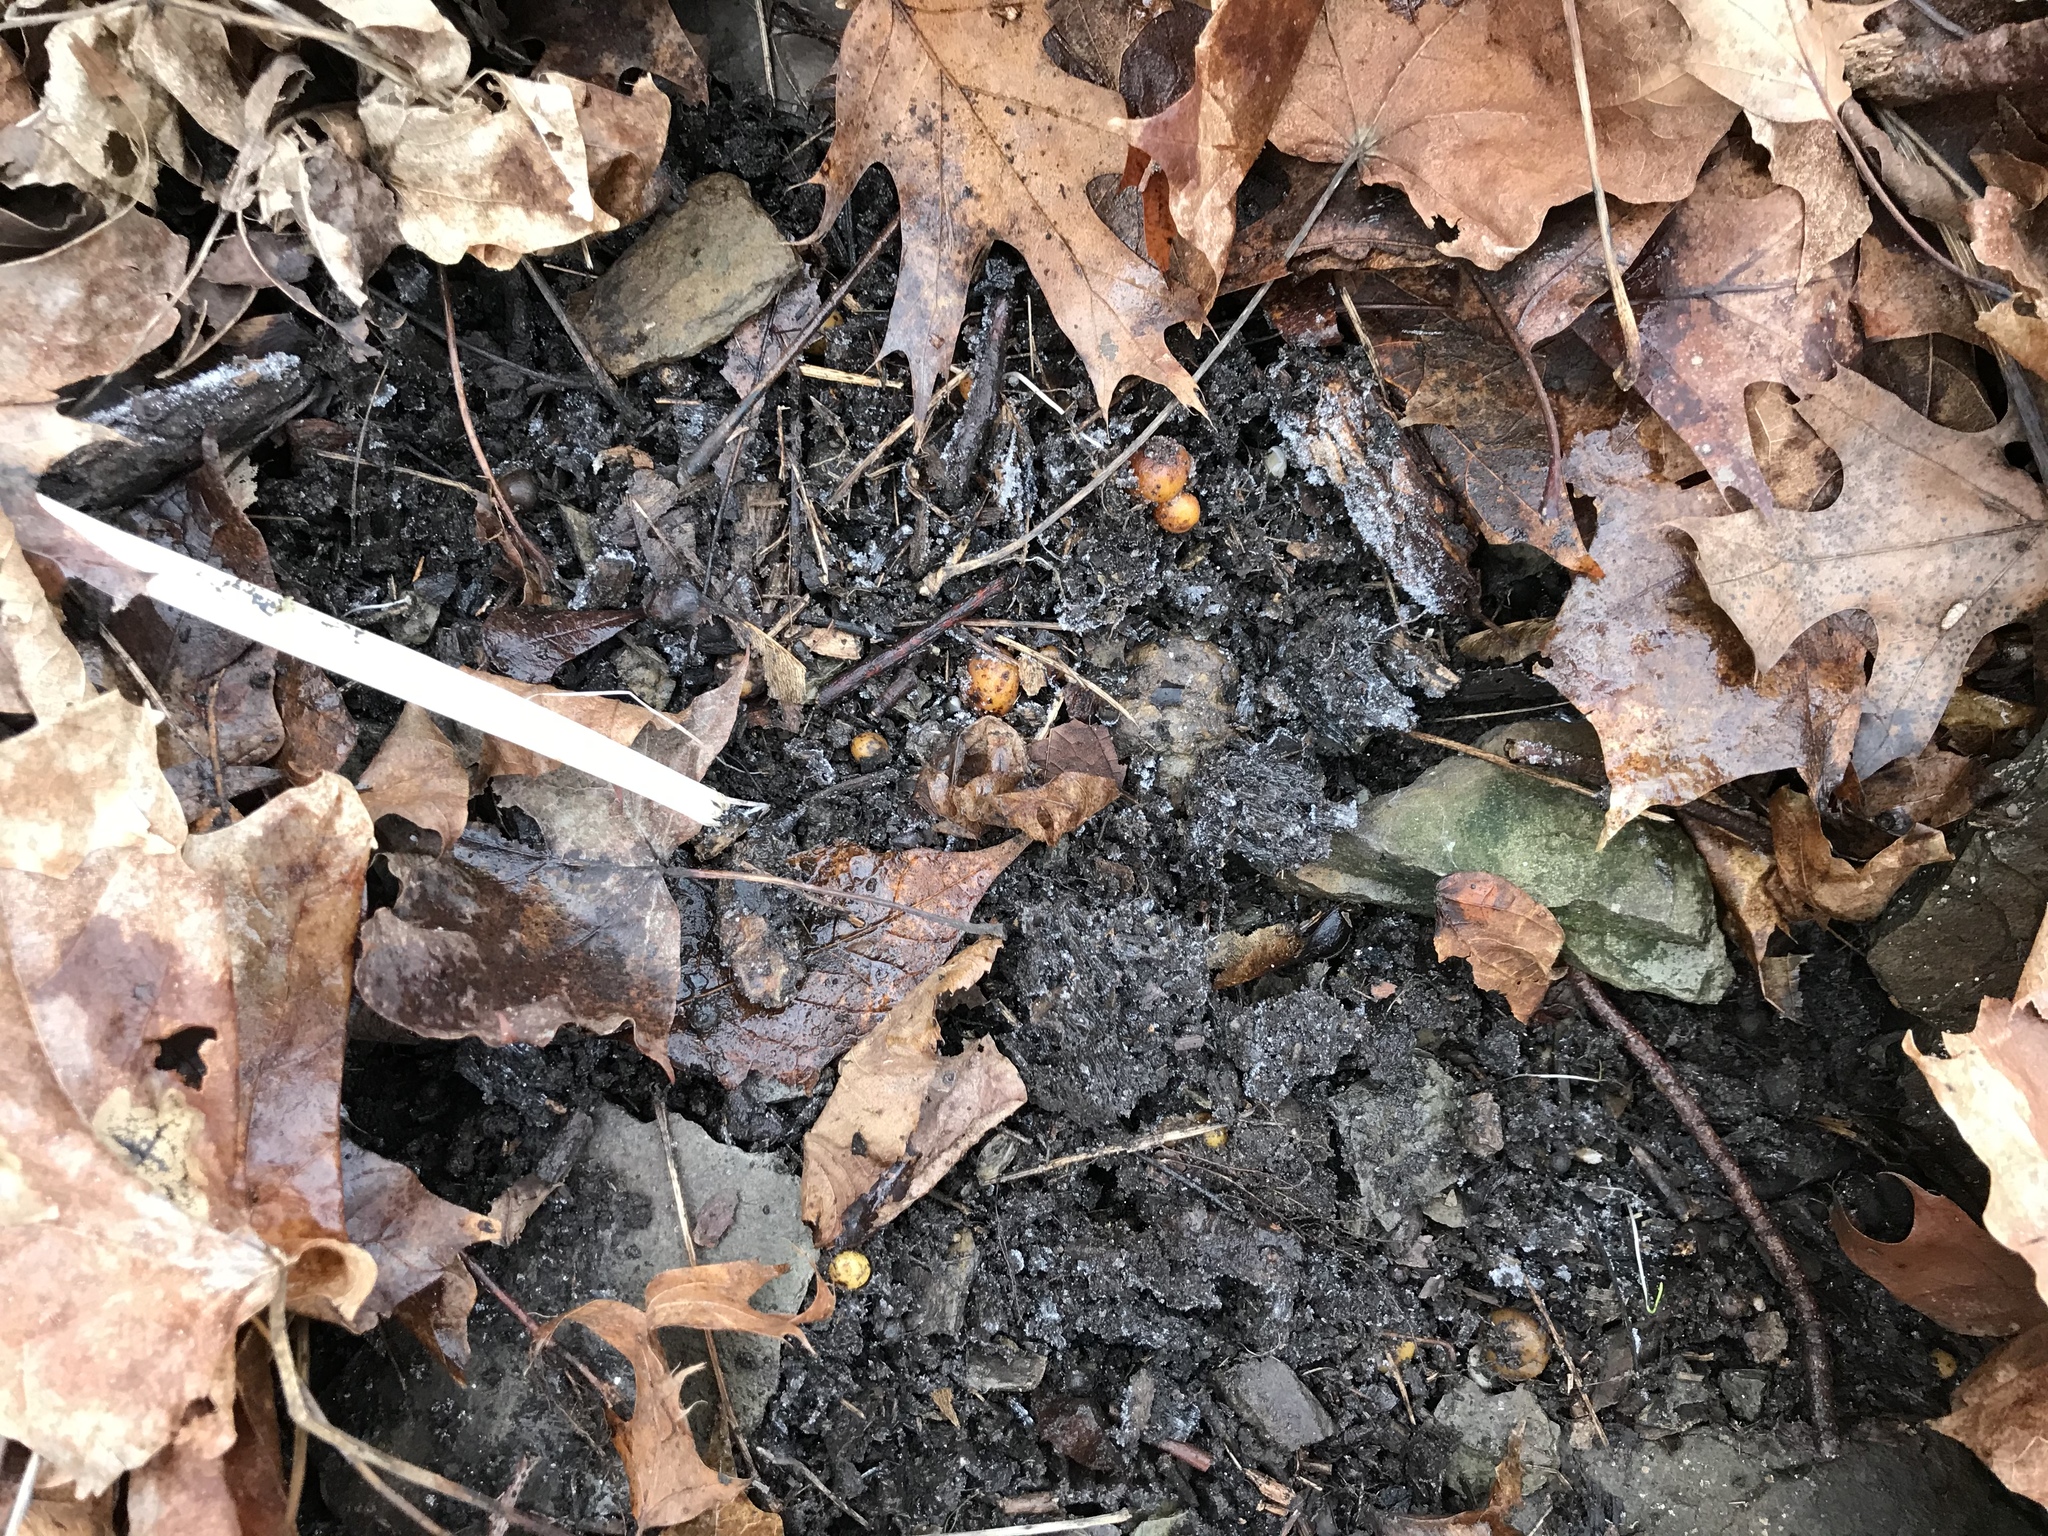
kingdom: Plantae
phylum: Tracheophyta
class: Magnoliopsida
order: Ranunculales
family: Papaveraceae
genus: Dicentra
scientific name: Dicentra canadensis
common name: Squirrel-corn
